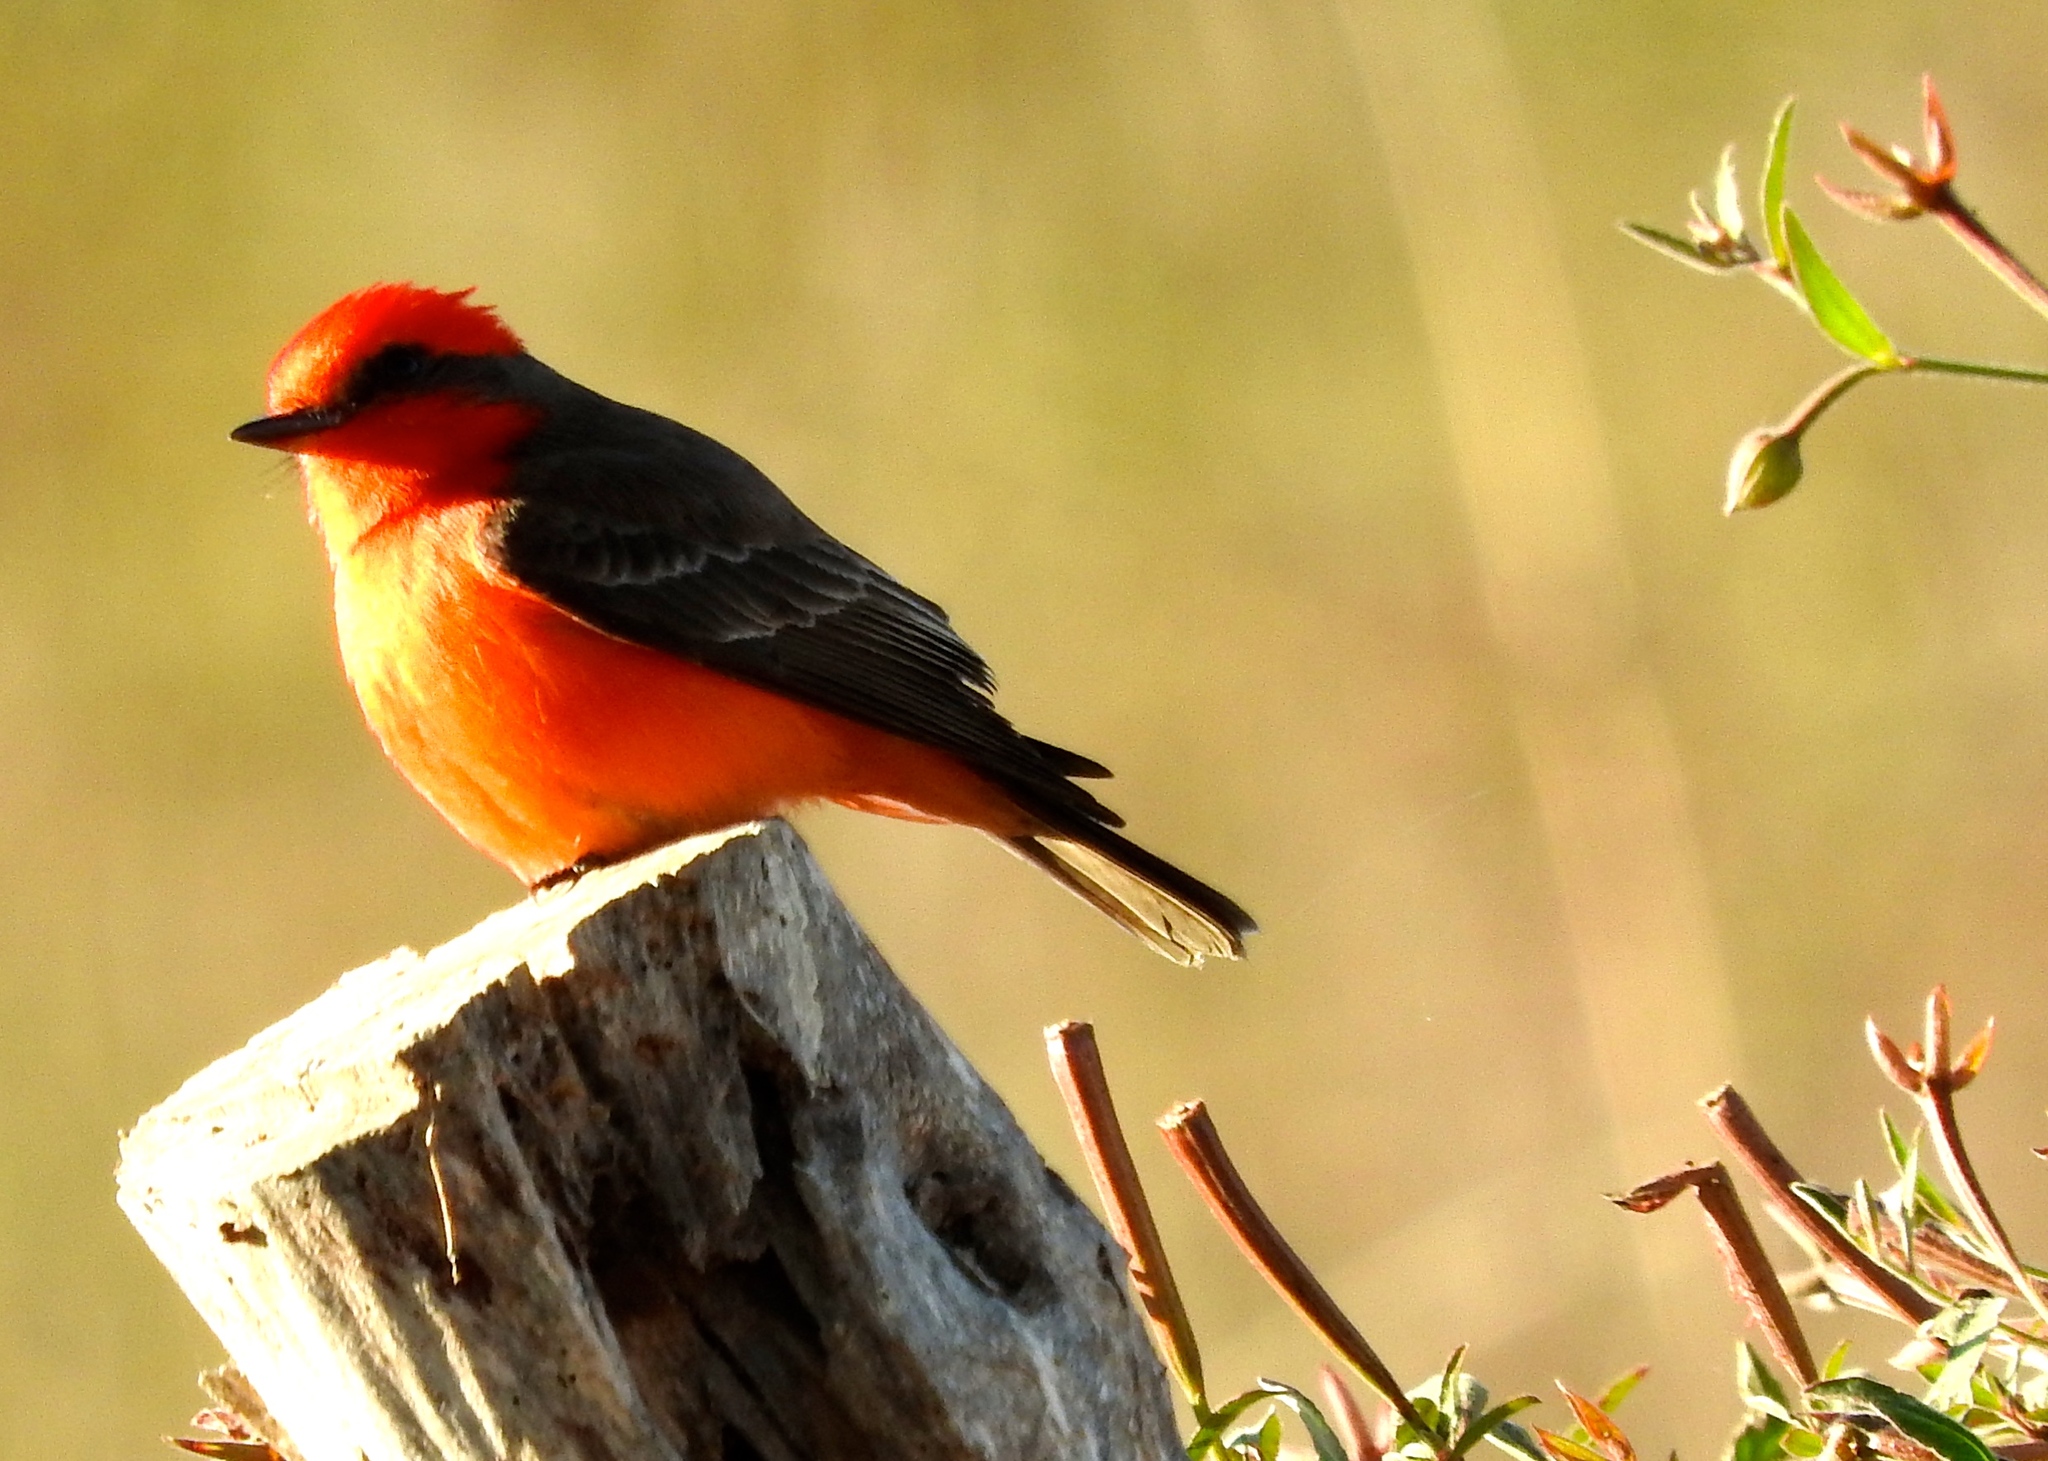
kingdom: Animalia
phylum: Chordata
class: Aves
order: Passeriformes
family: Tyrannidae
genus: Pyrocephalus
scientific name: Pyrocephalus rubinus
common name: Vermilion flycatcher
